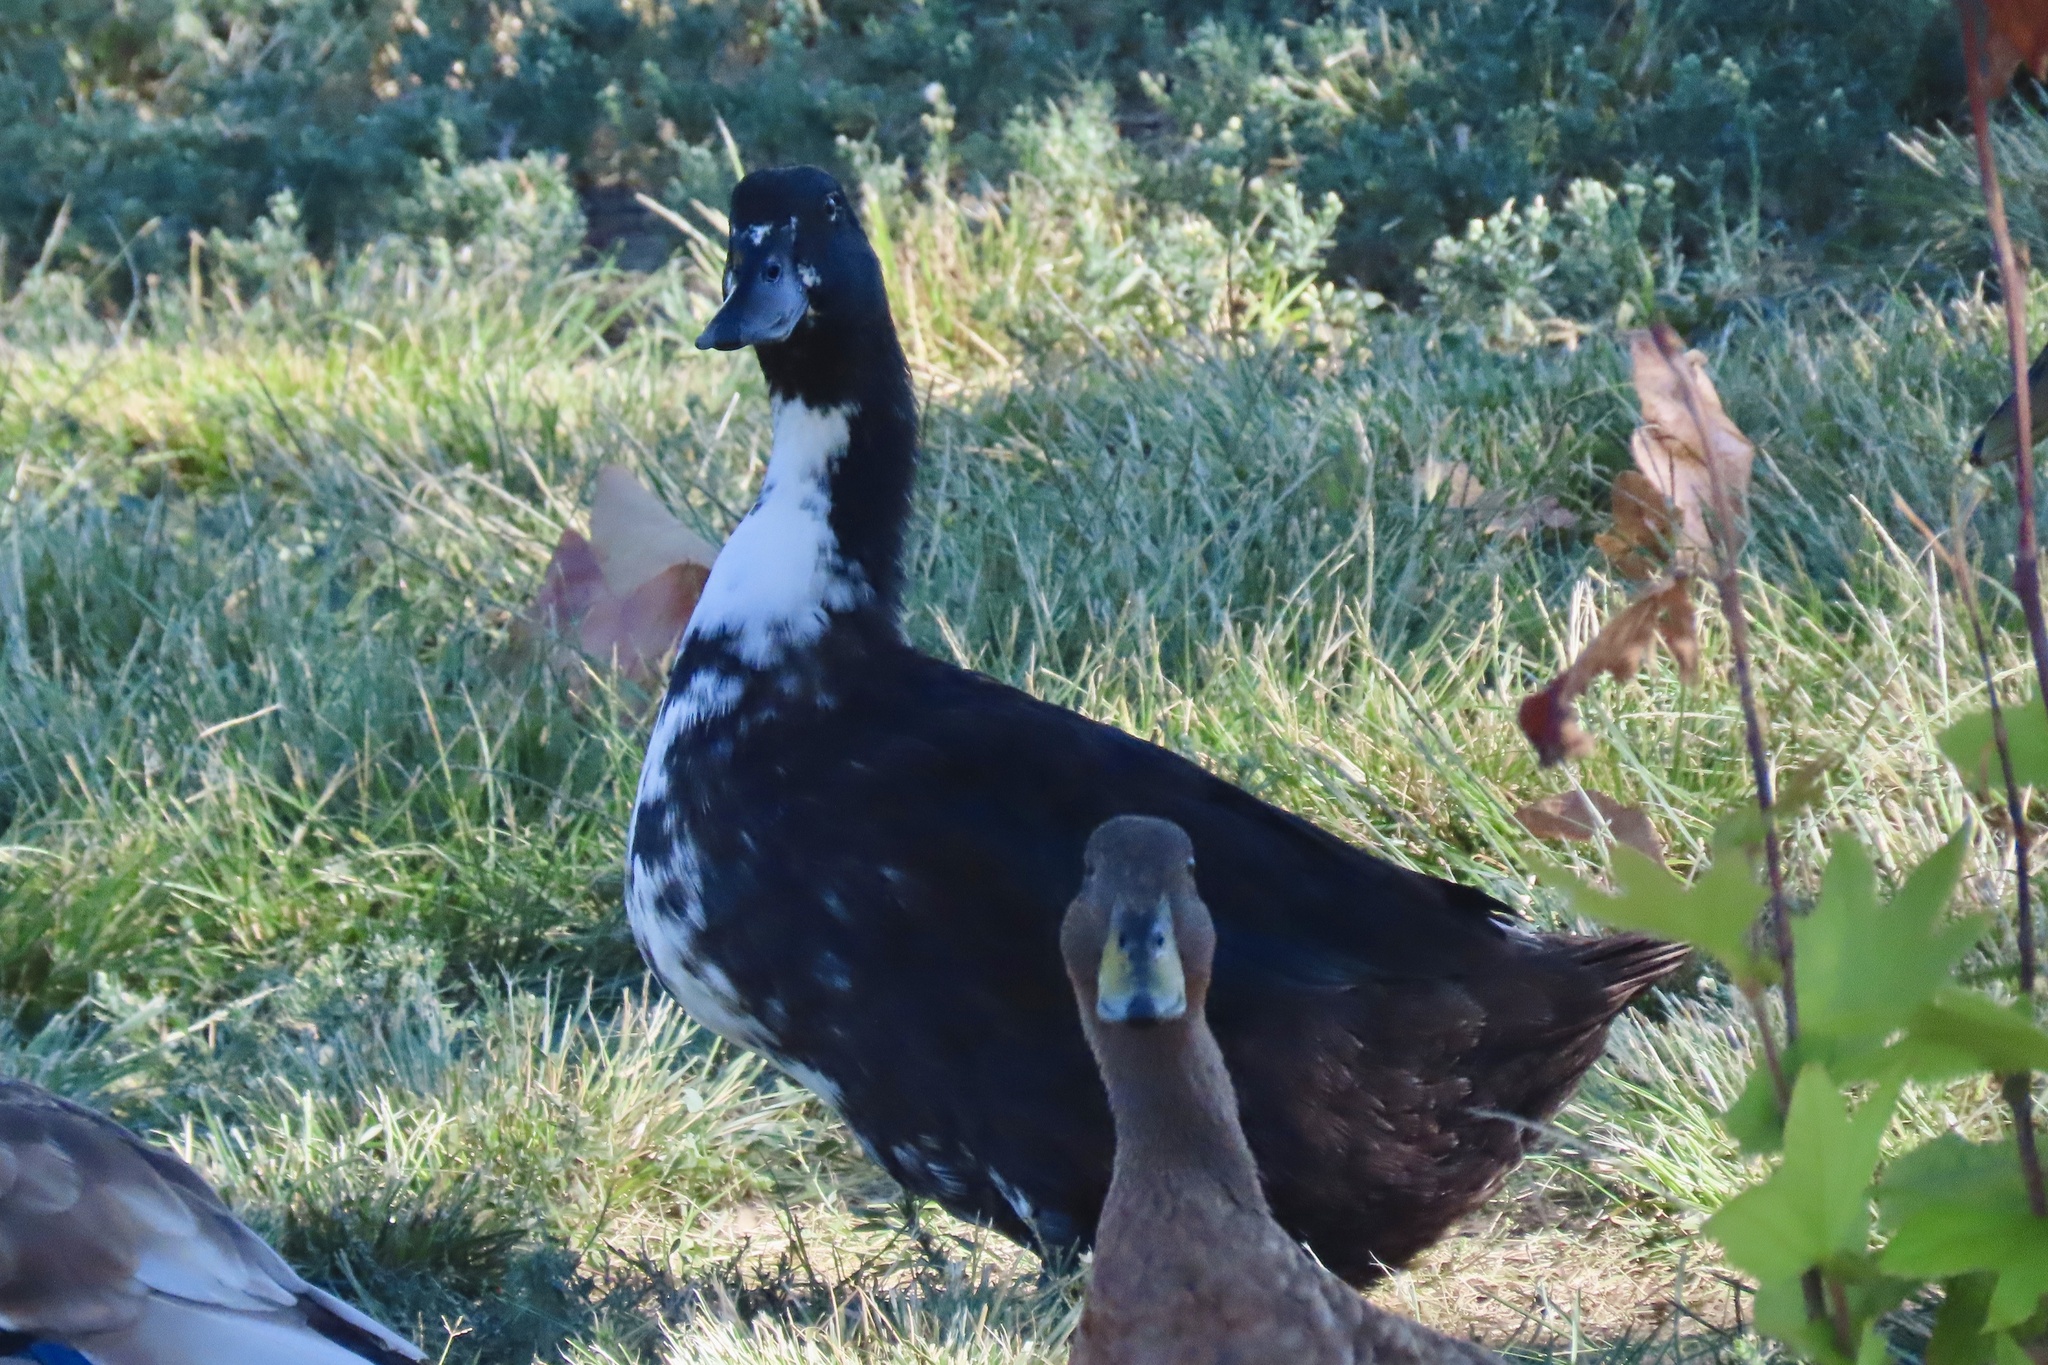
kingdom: Animalia
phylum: Chordata
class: Aves
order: Anseriformes
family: Anatidae
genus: Anas
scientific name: Anas platyrhynchos
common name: Mallard
